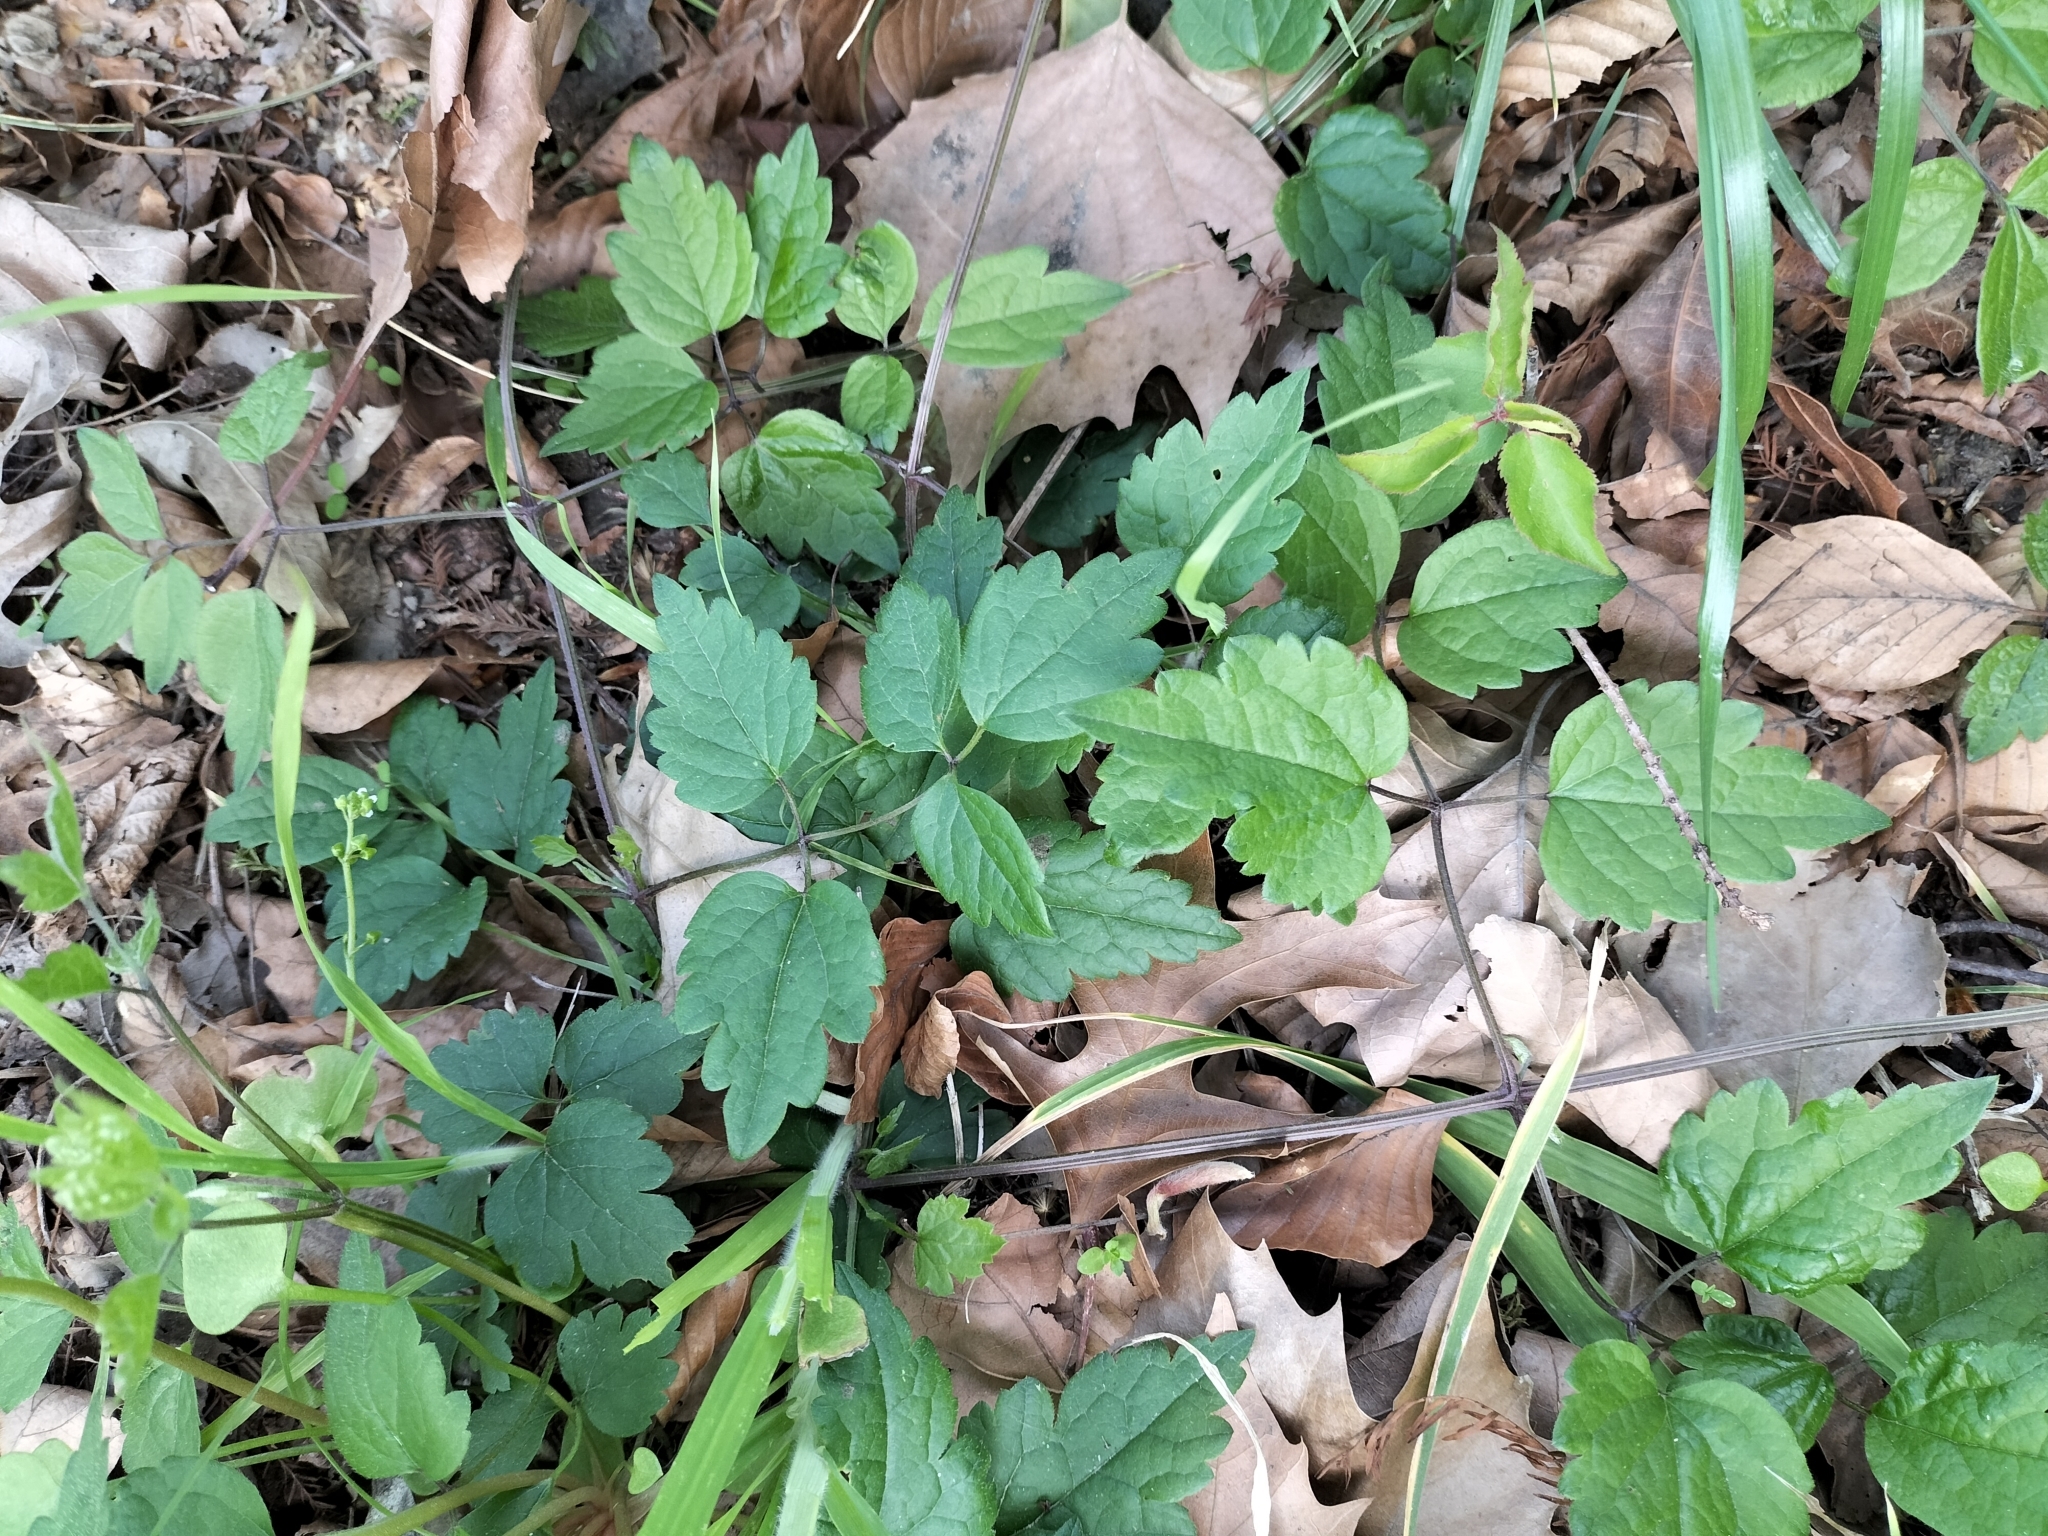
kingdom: Plantae
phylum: Tracheophyta
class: Magnoliopsida
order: Ranunculales
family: Ranunculaceae
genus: Clematis
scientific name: Clematis vitalba
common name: Evergreen clematis
